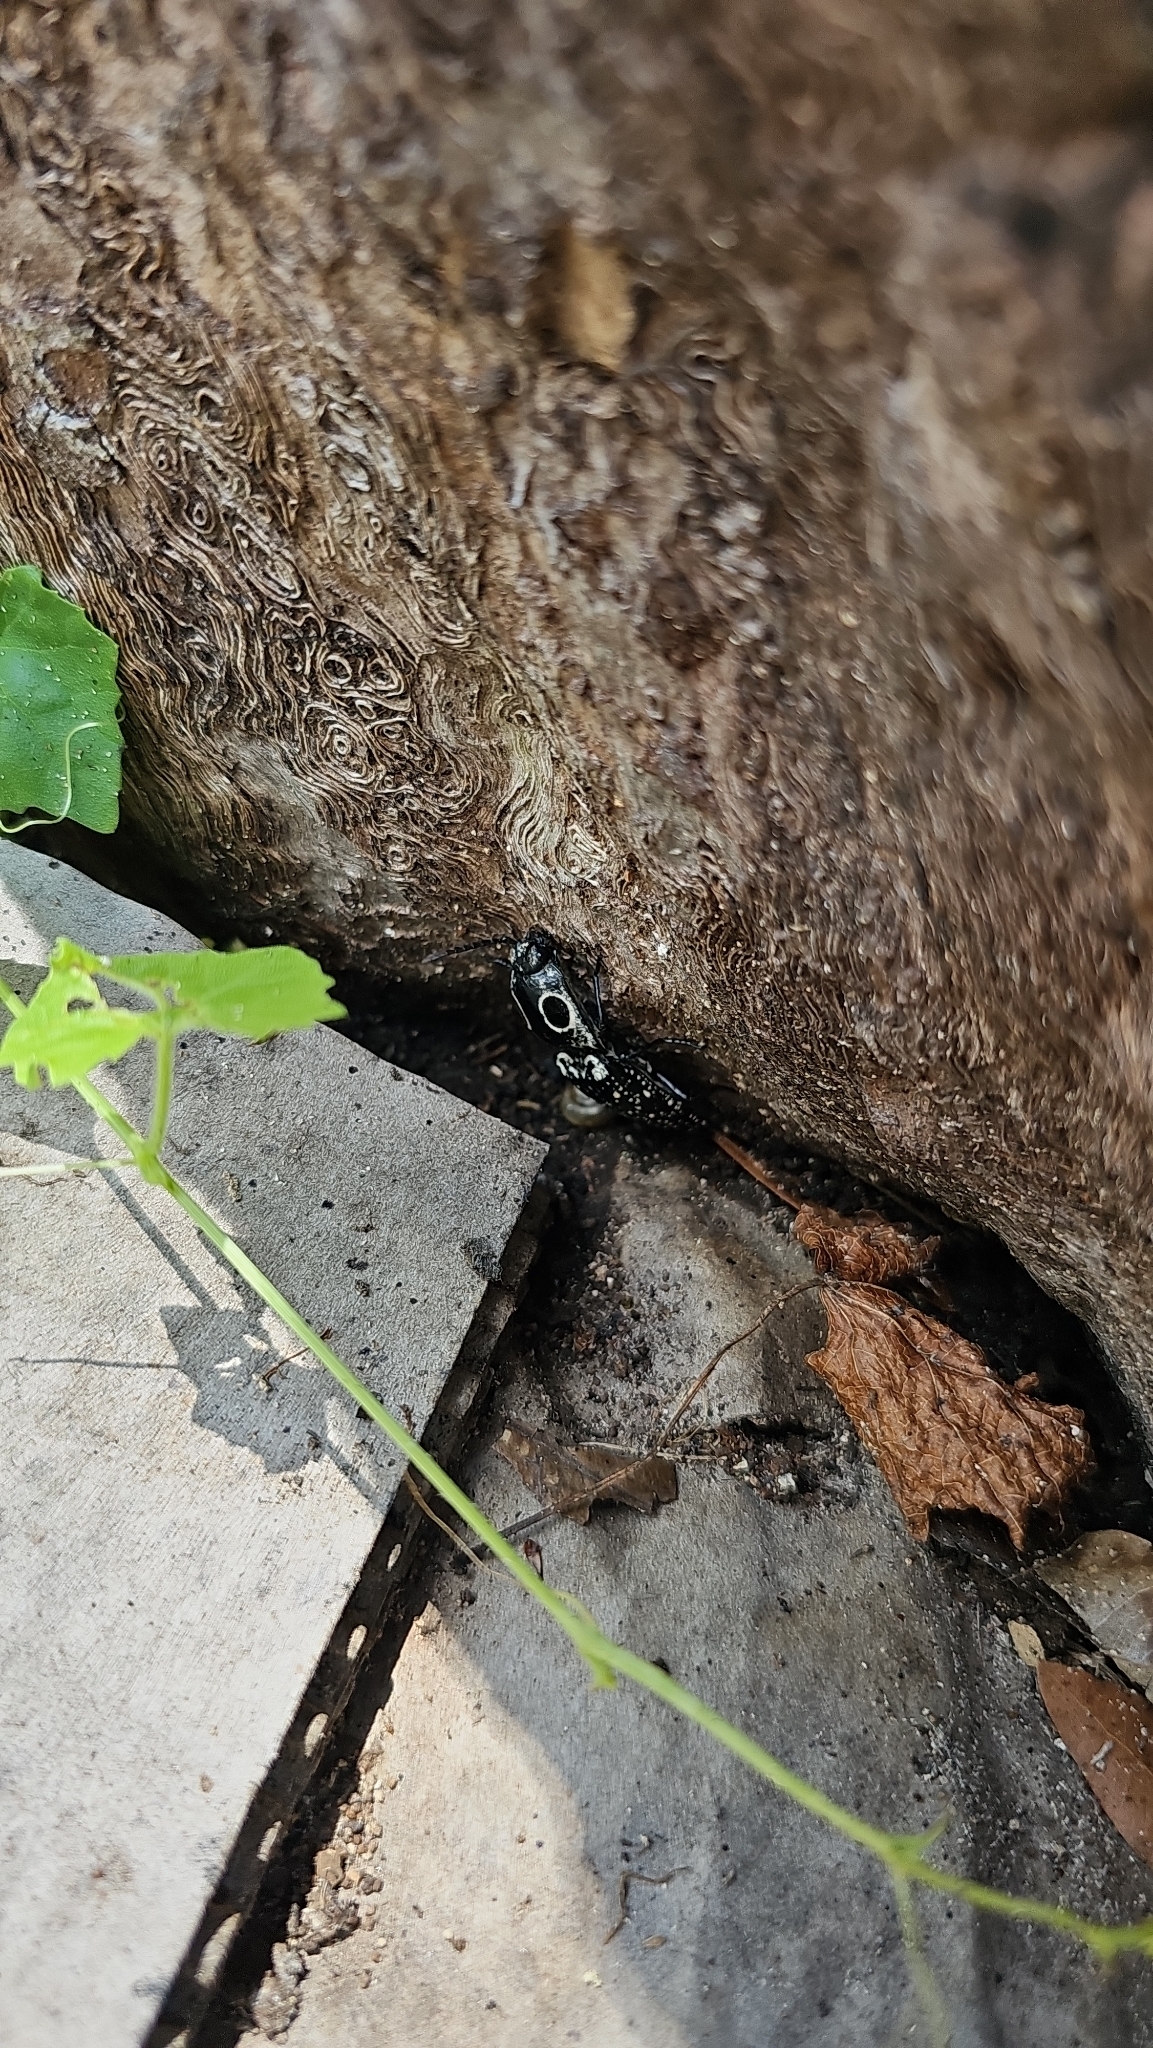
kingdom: Animalia
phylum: Arthropoda
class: Insecta
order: Coleoptera
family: Elateridae
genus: Alaus
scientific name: Alaus oculatus
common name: Eastern eyed click beetle
